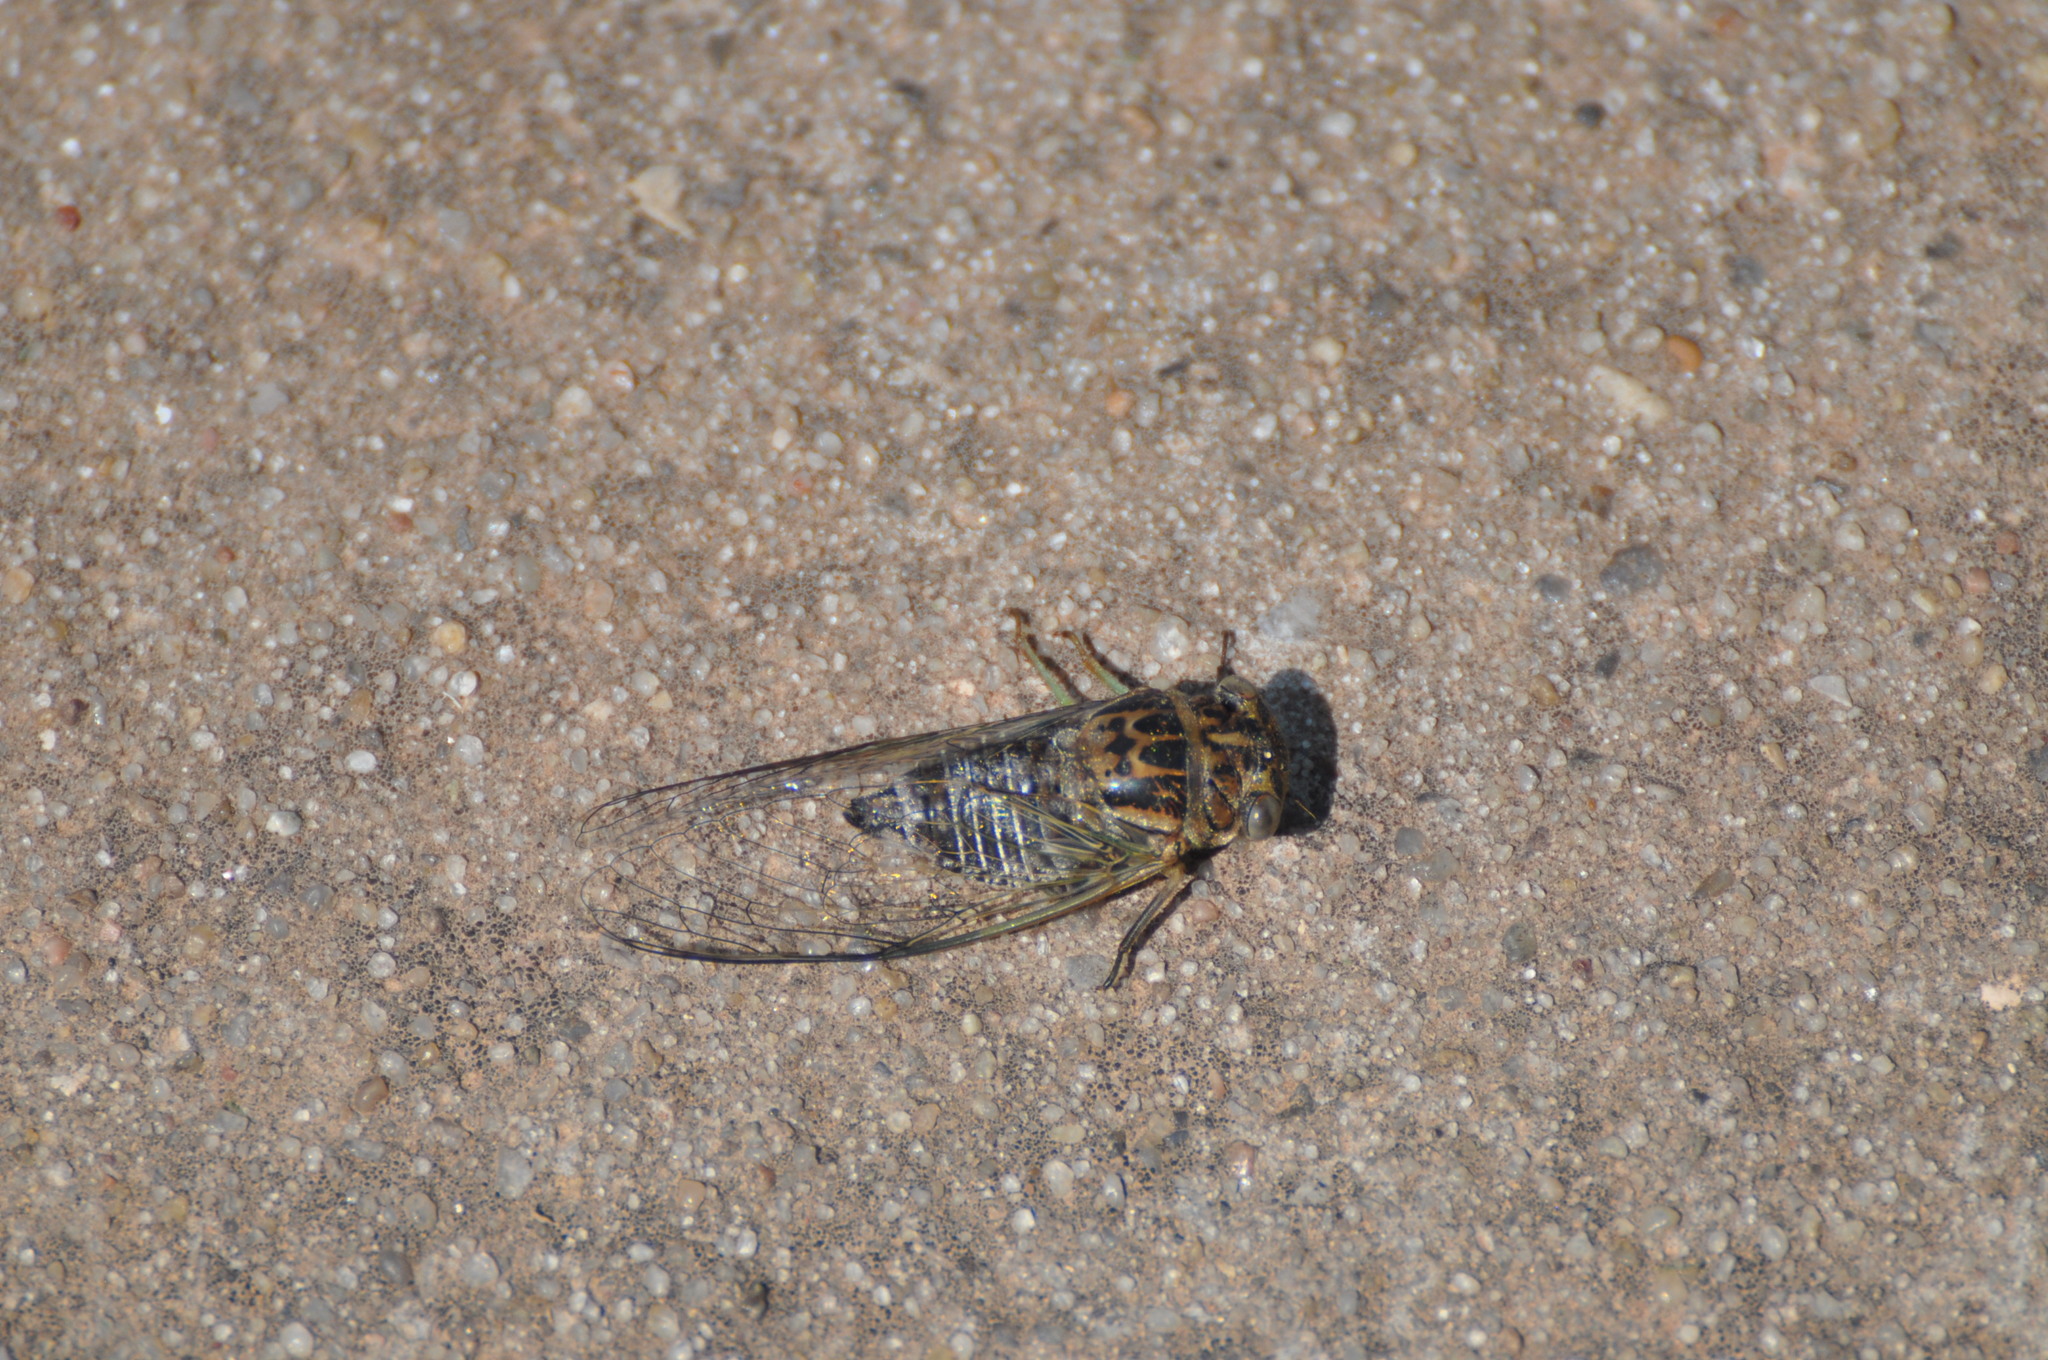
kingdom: Animalia
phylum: Arthropoda
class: Insecta
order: Hemiptera
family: Cicadidae
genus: Diceroprocta
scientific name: Diceroprocta vitripennis
